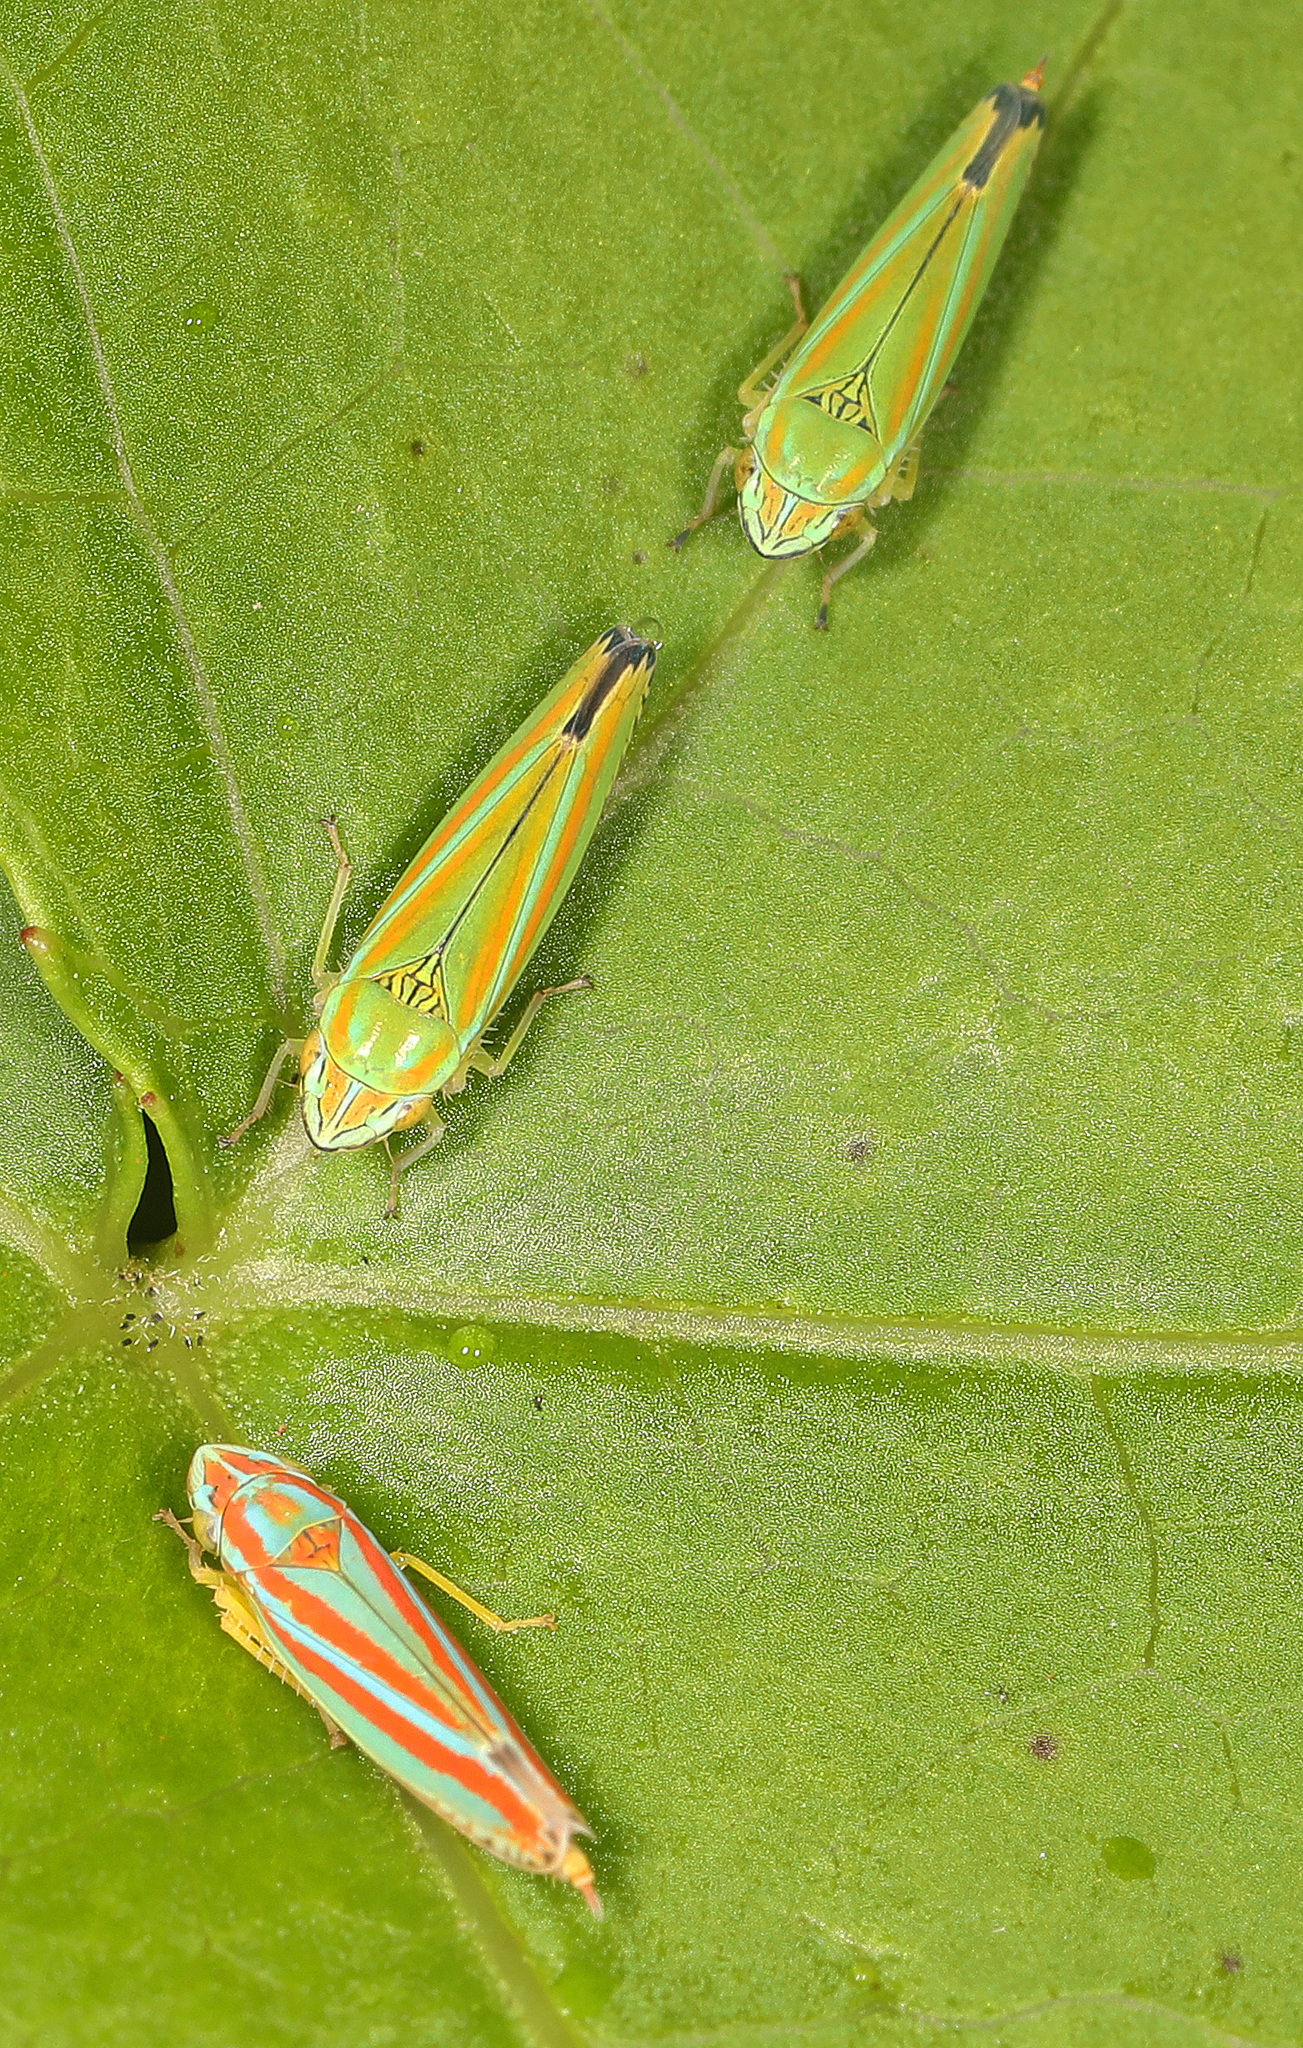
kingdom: Animalia
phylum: Arthropoda
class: Insecta
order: Hemiptera
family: Cicadellidae
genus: Graphocephala
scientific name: Graphocephala versuta
